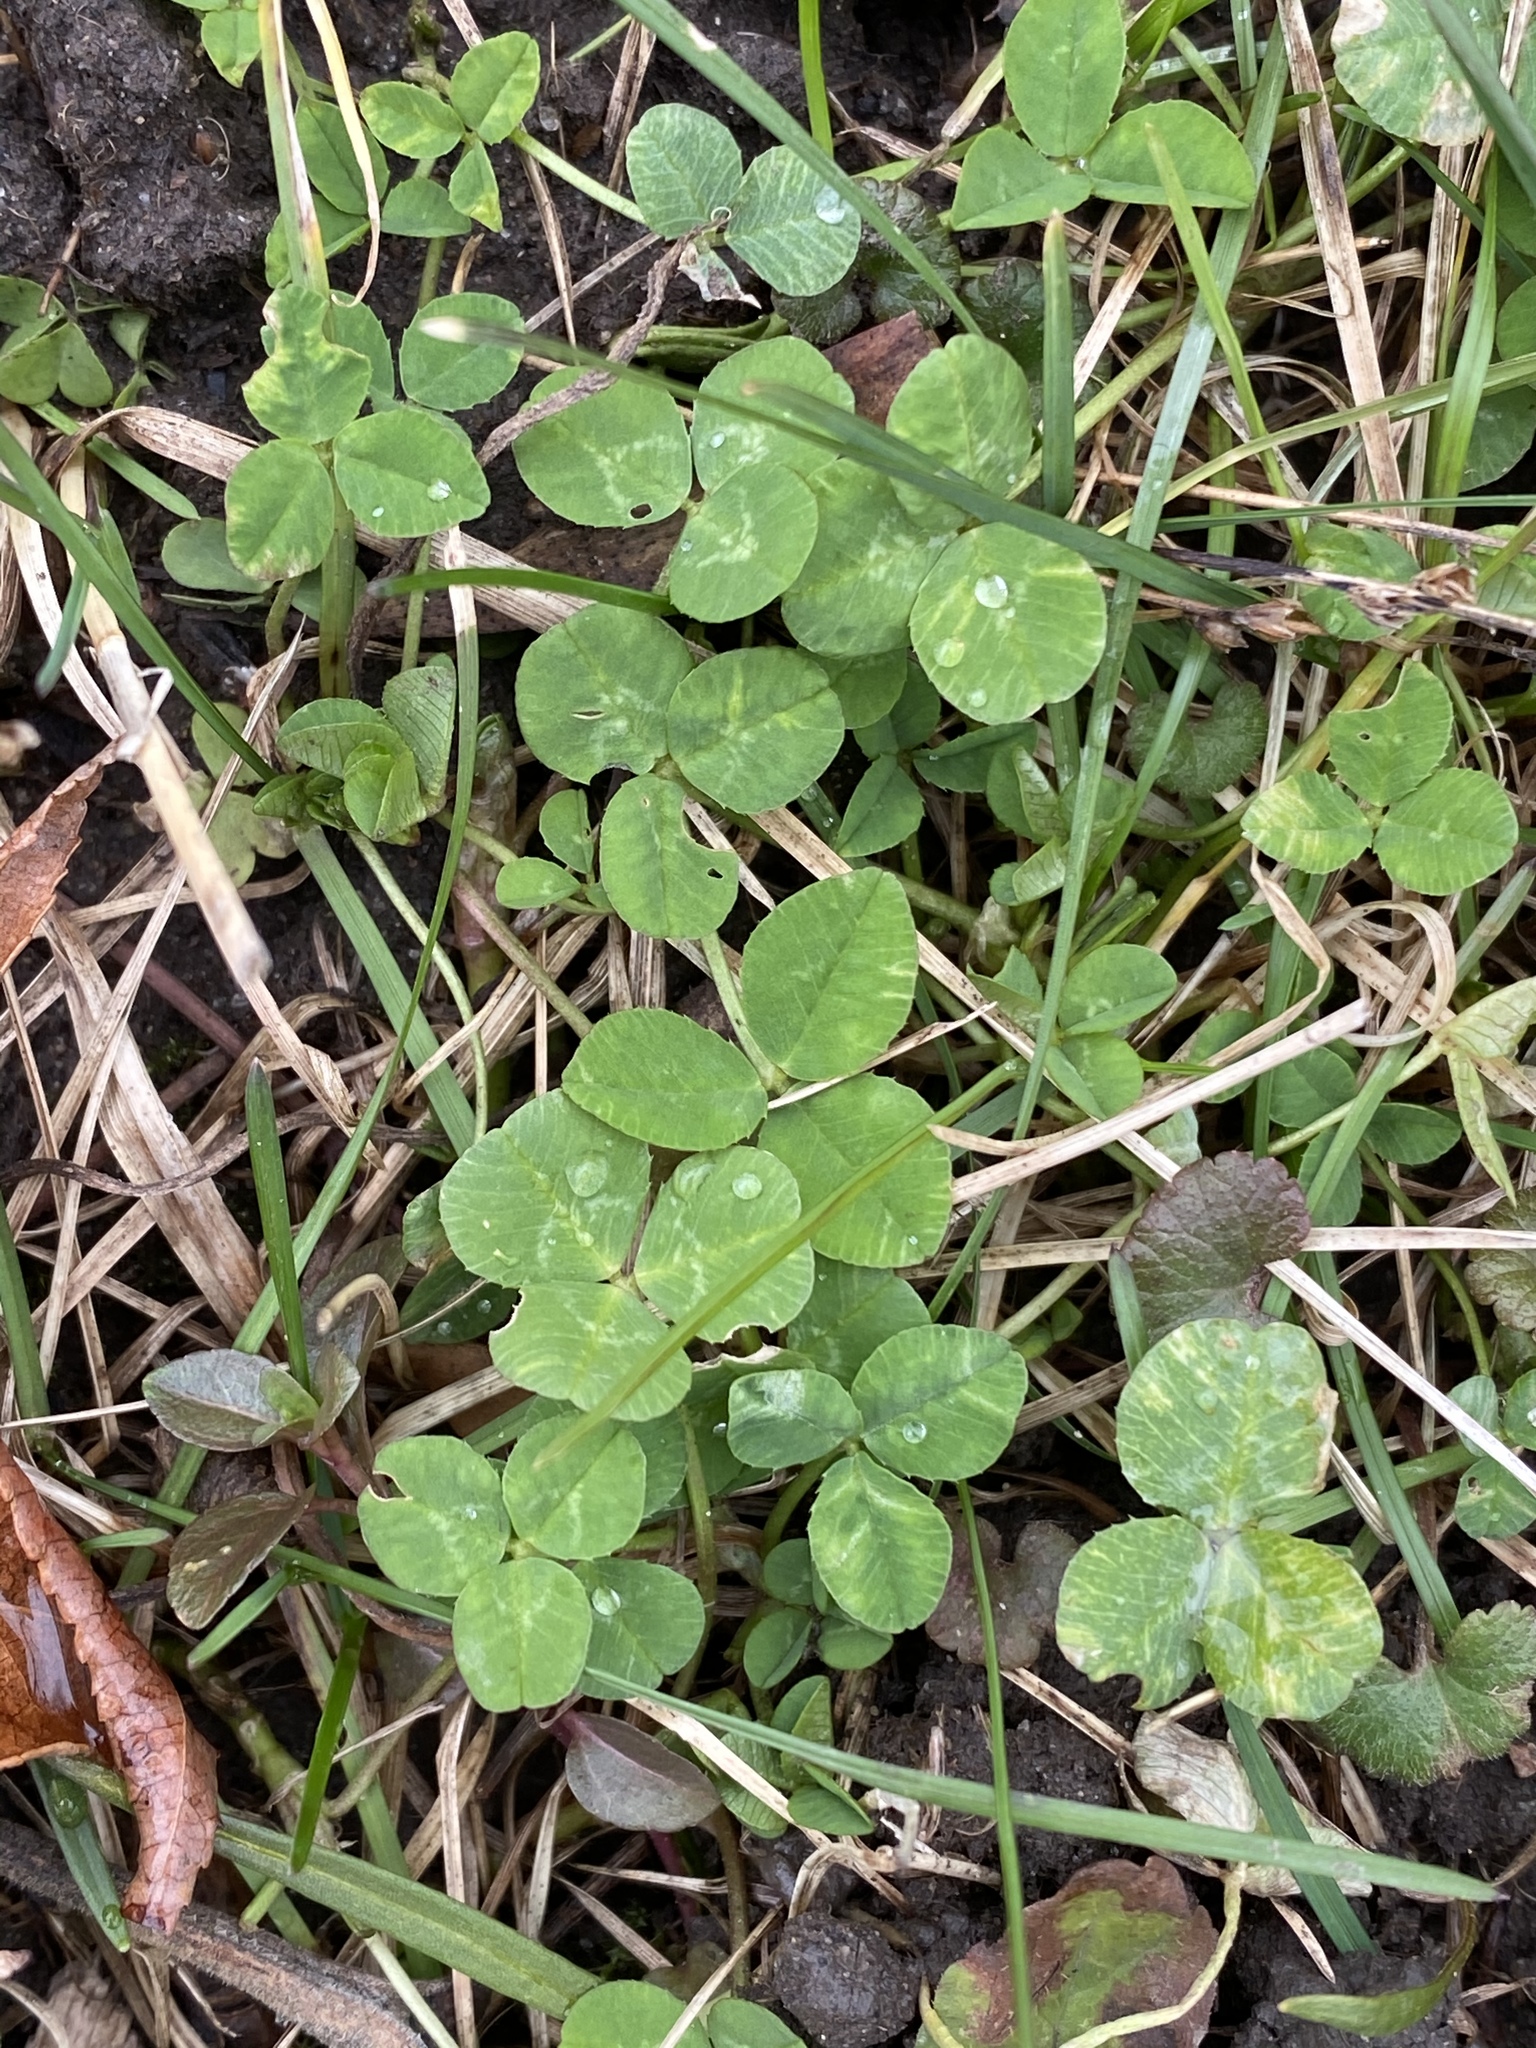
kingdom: Plantae
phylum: Tracheophyta
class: Magnoliopsida
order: Fabales
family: Fabaceae
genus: Trifolium
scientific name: Trifolium repens
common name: White clover
